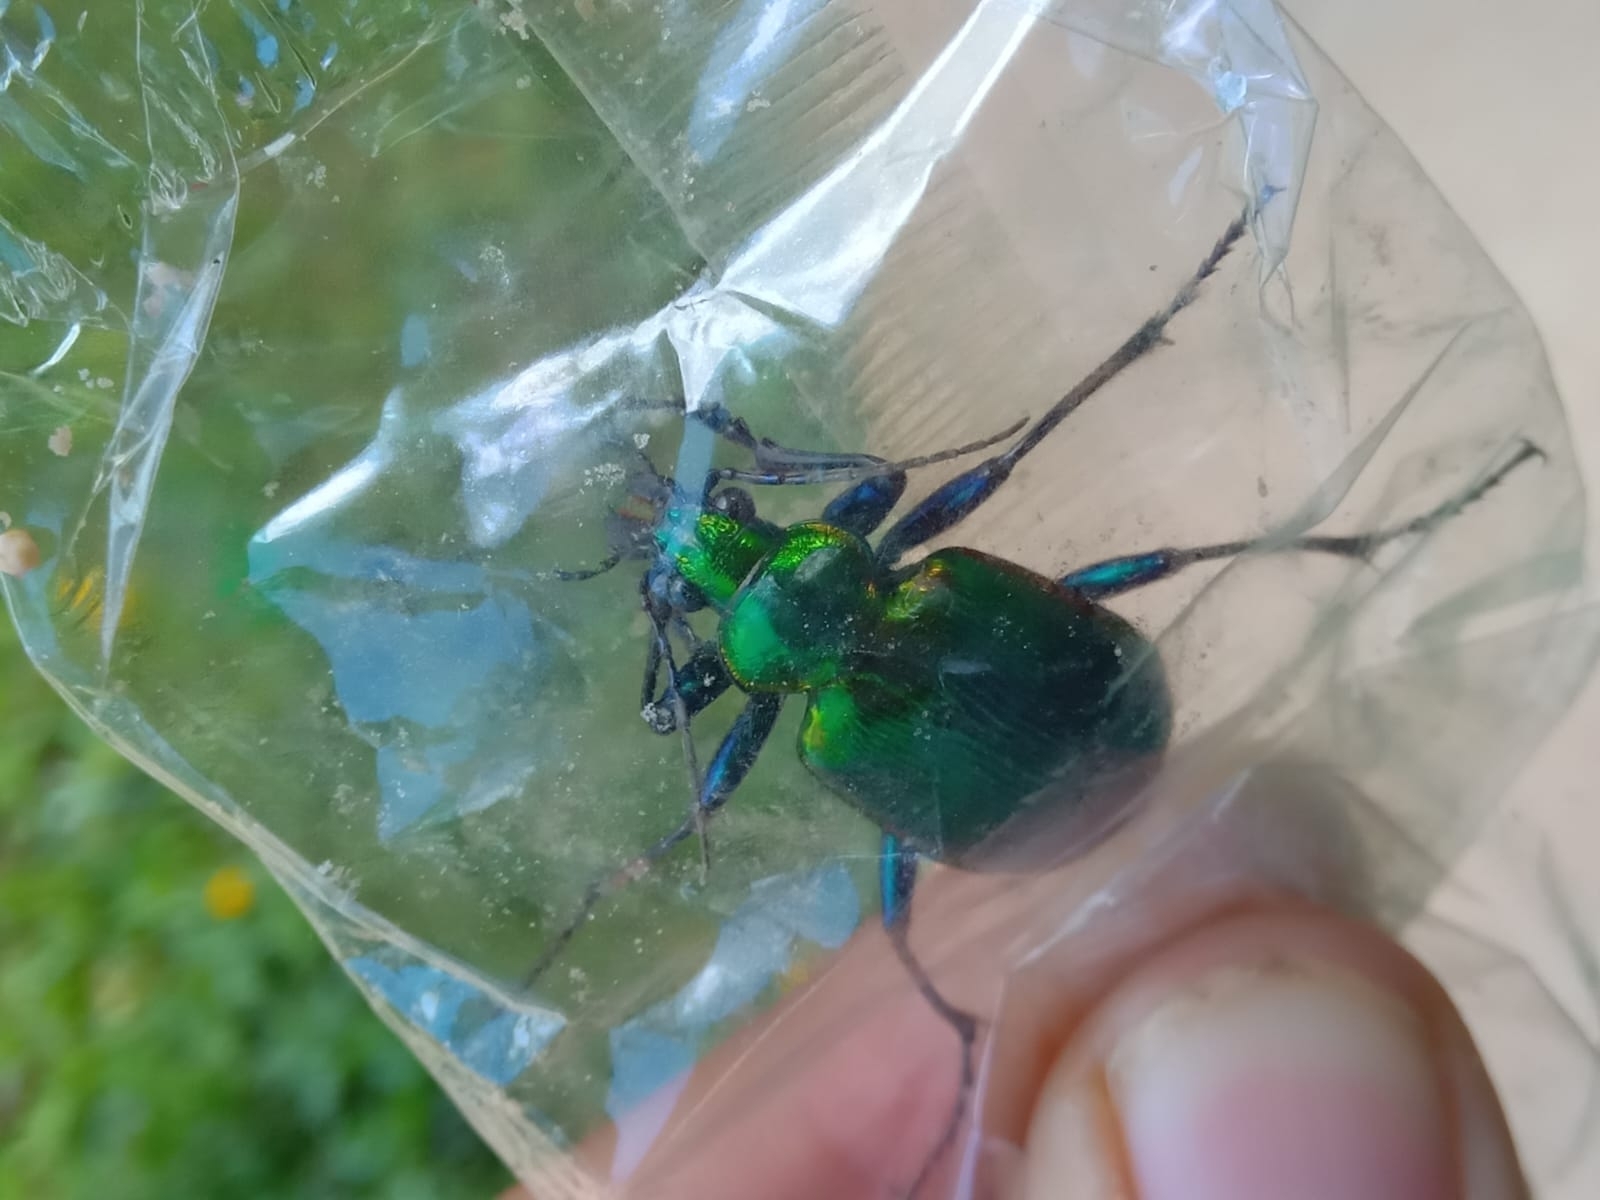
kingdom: Animalia
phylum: Arthropoda
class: Insecta
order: Coleoptera
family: Carabidae
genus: Calosoma
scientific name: Calosoma aurocinctum
